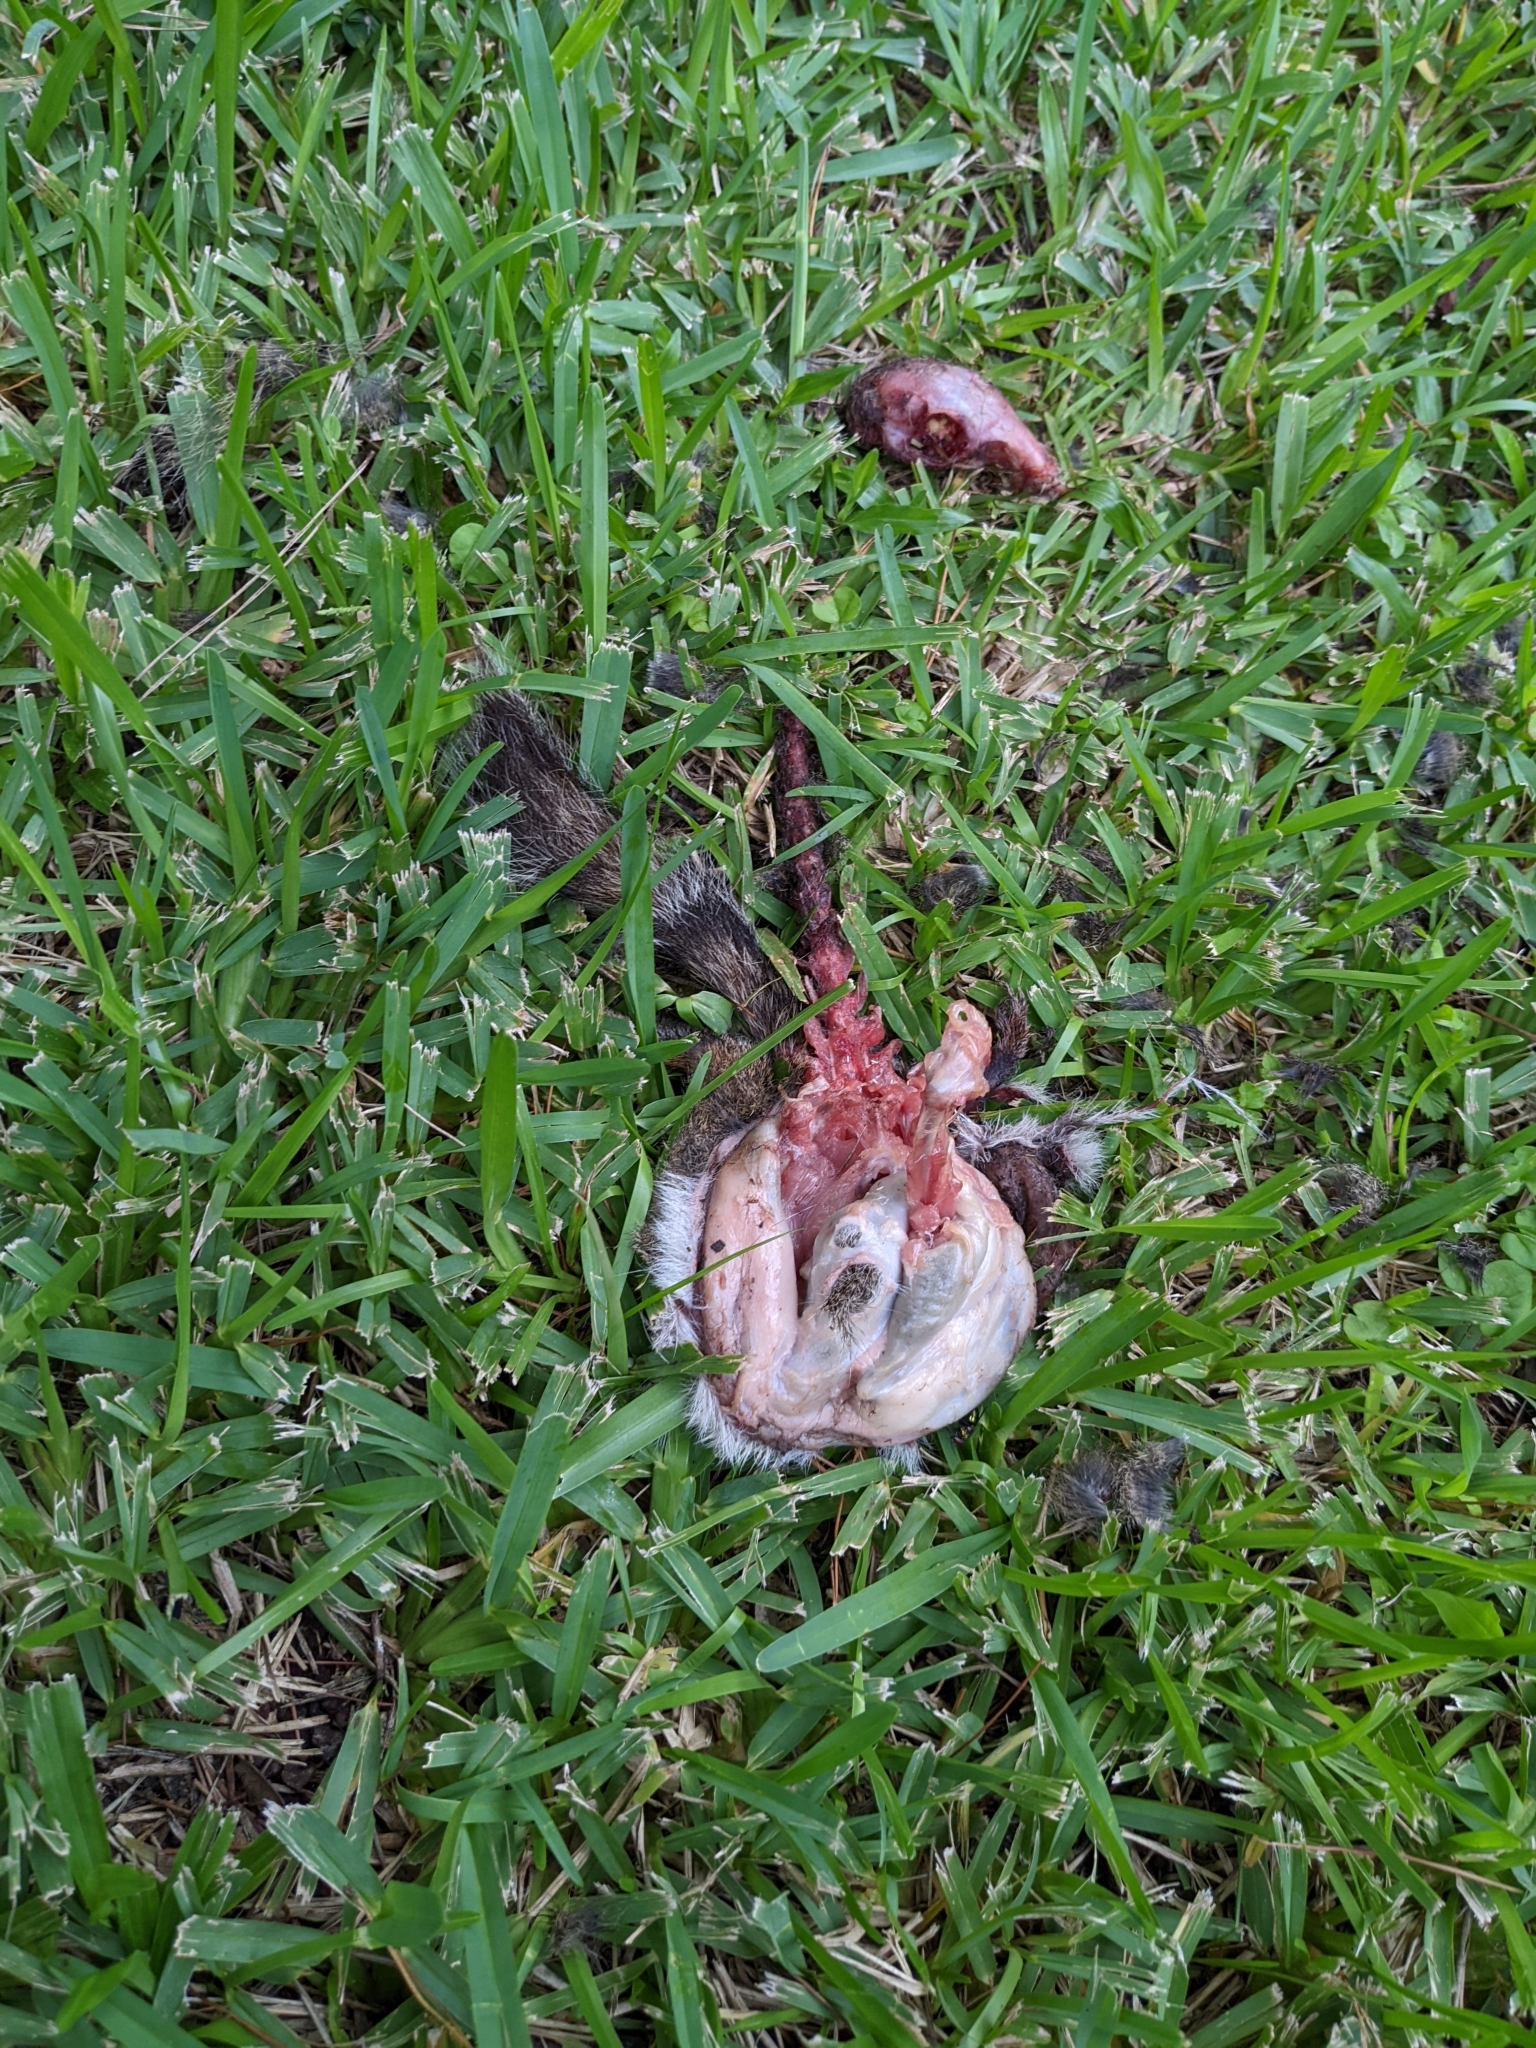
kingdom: Animalia
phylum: Chordata
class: Mammalia
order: Rodentia
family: Sciuridae
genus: Sciurus
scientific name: Sciurus carolinensis
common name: Eastern gray squirrel
